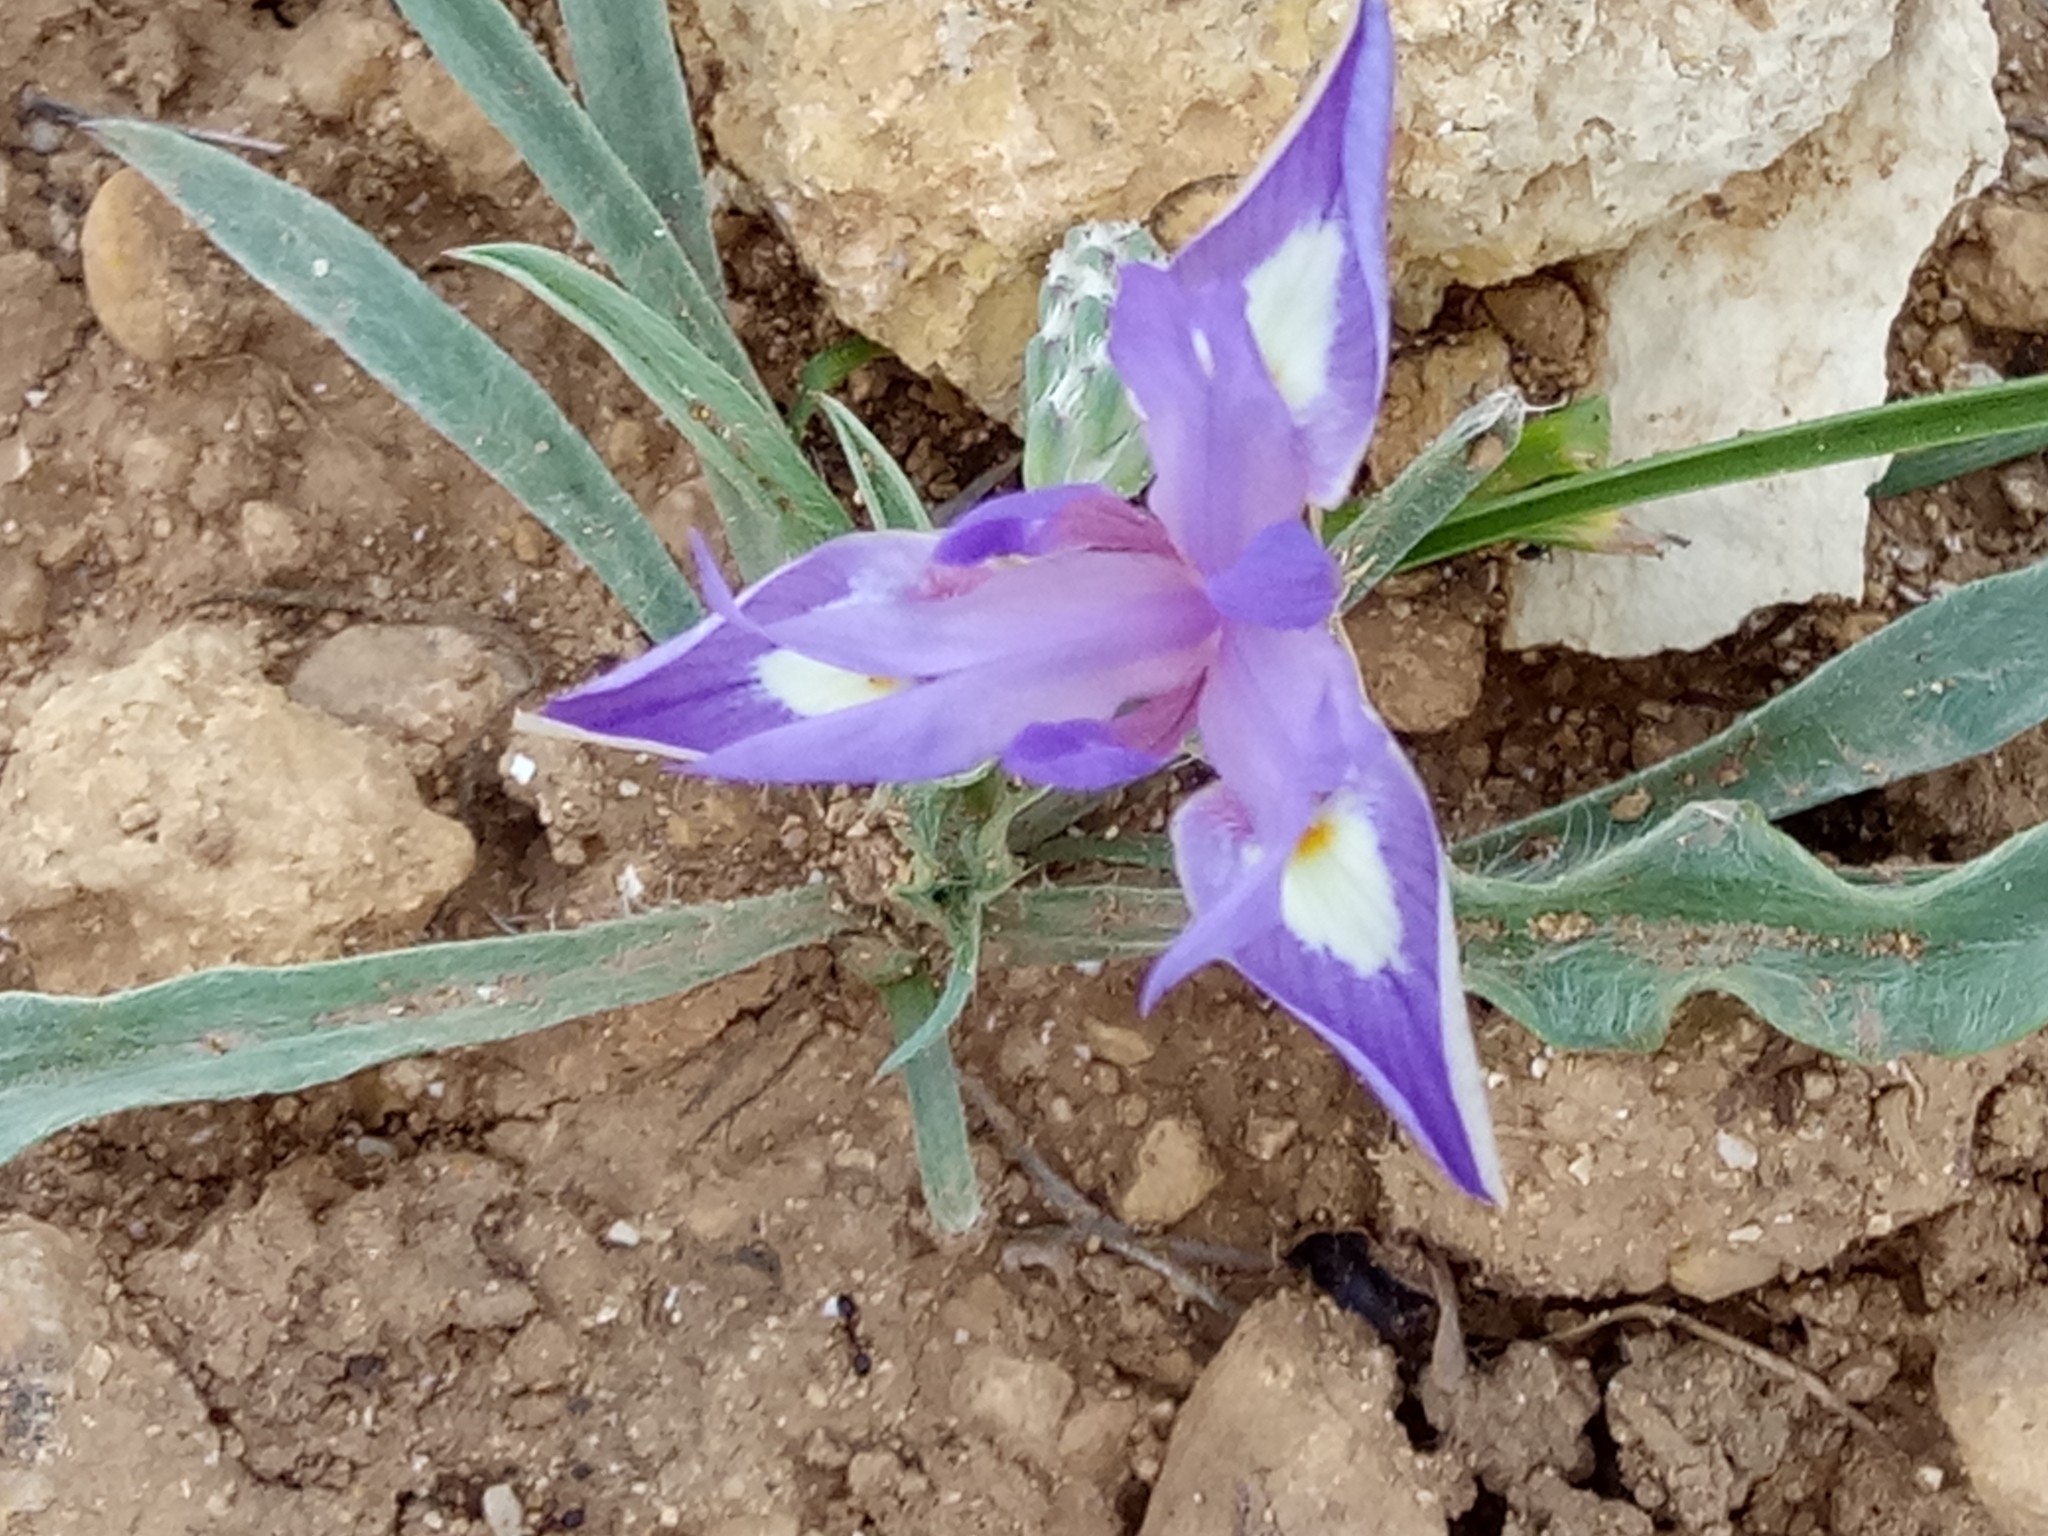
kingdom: Plantae
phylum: Tracheophyta
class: Liliopsida
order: Asparagales
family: Iridaceae
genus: Moraea
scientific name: Moraea sisyrinchium
